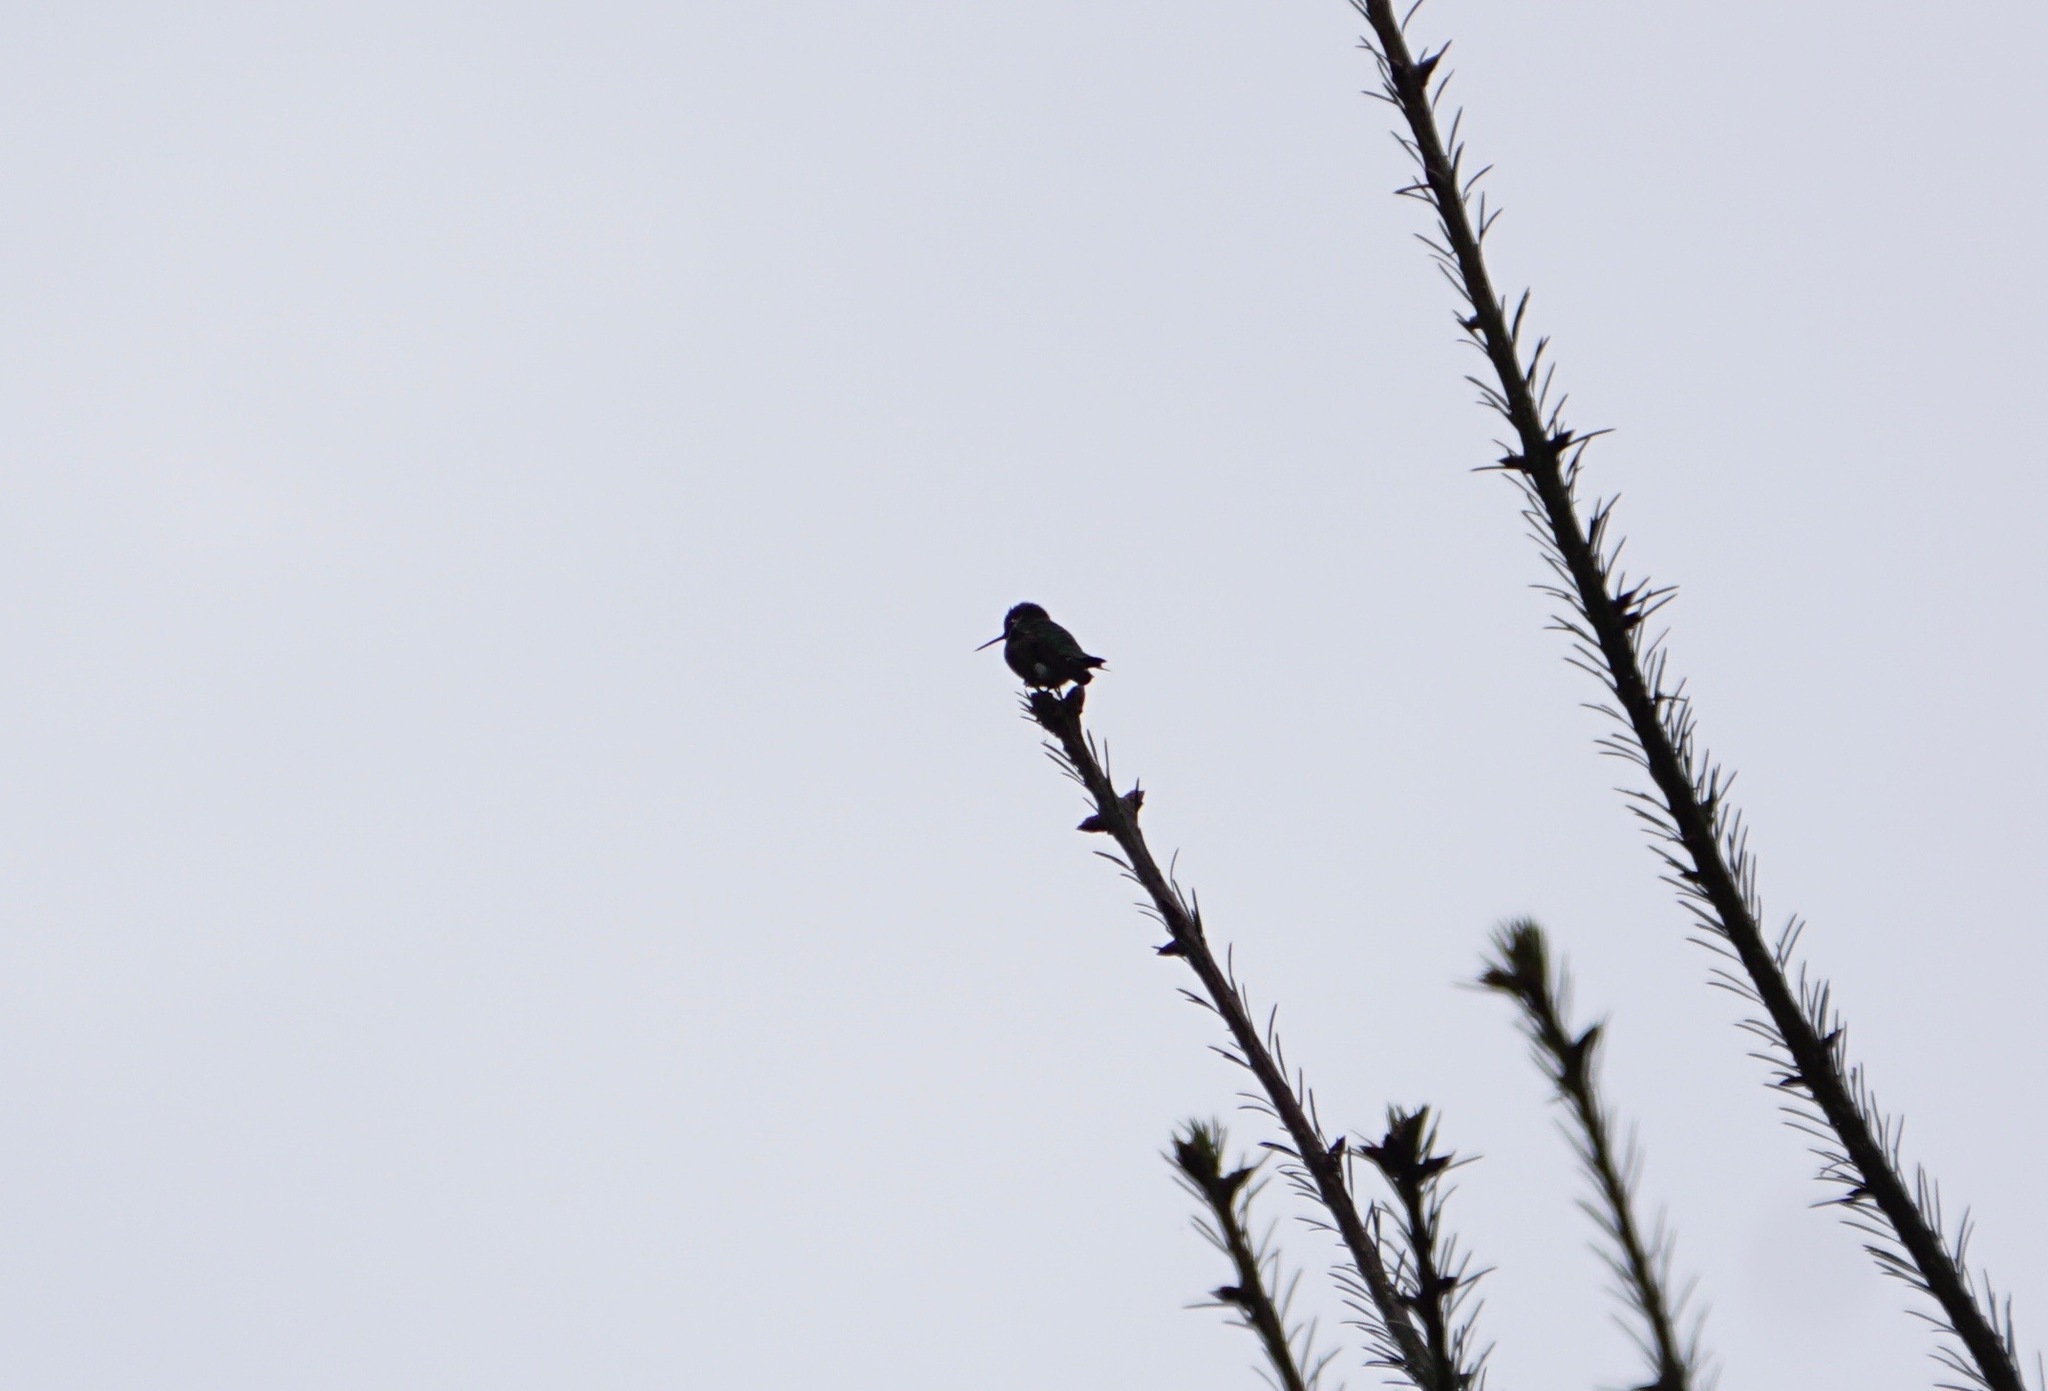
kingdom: Animalia
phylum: Chordata
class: Aves
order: Apodiformes
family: Trochilidae
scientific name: Trochilidae
